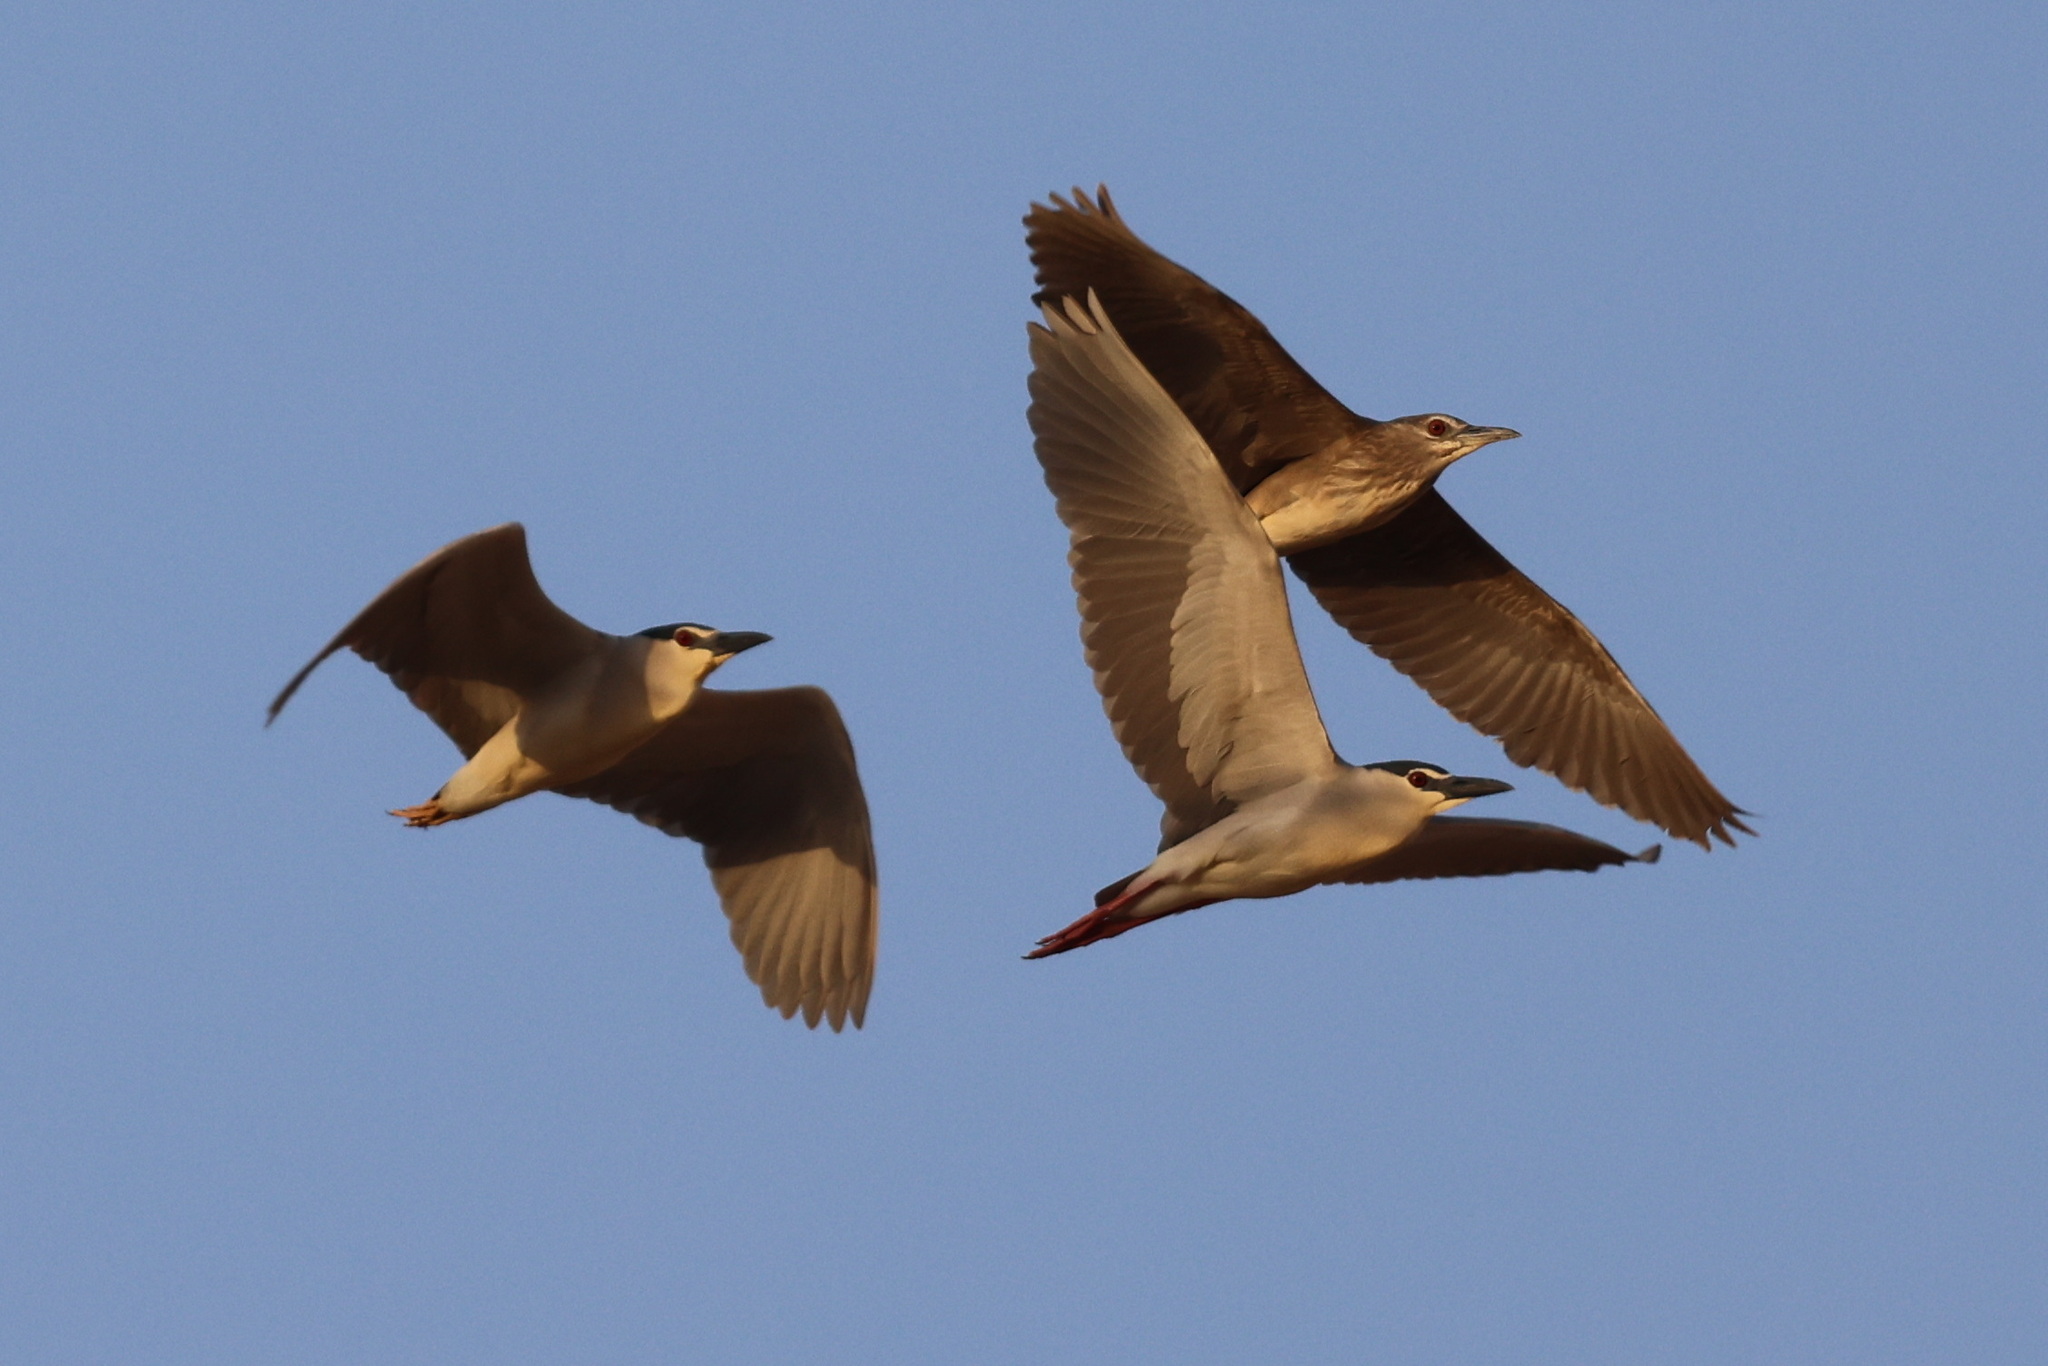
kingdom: Animalia
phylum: Chordata
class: Aves
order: Pelecaniformes
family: Ardeidae
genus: Nycticorax
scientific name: Nycticorax nycticorax
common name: Black-crowned night heron
